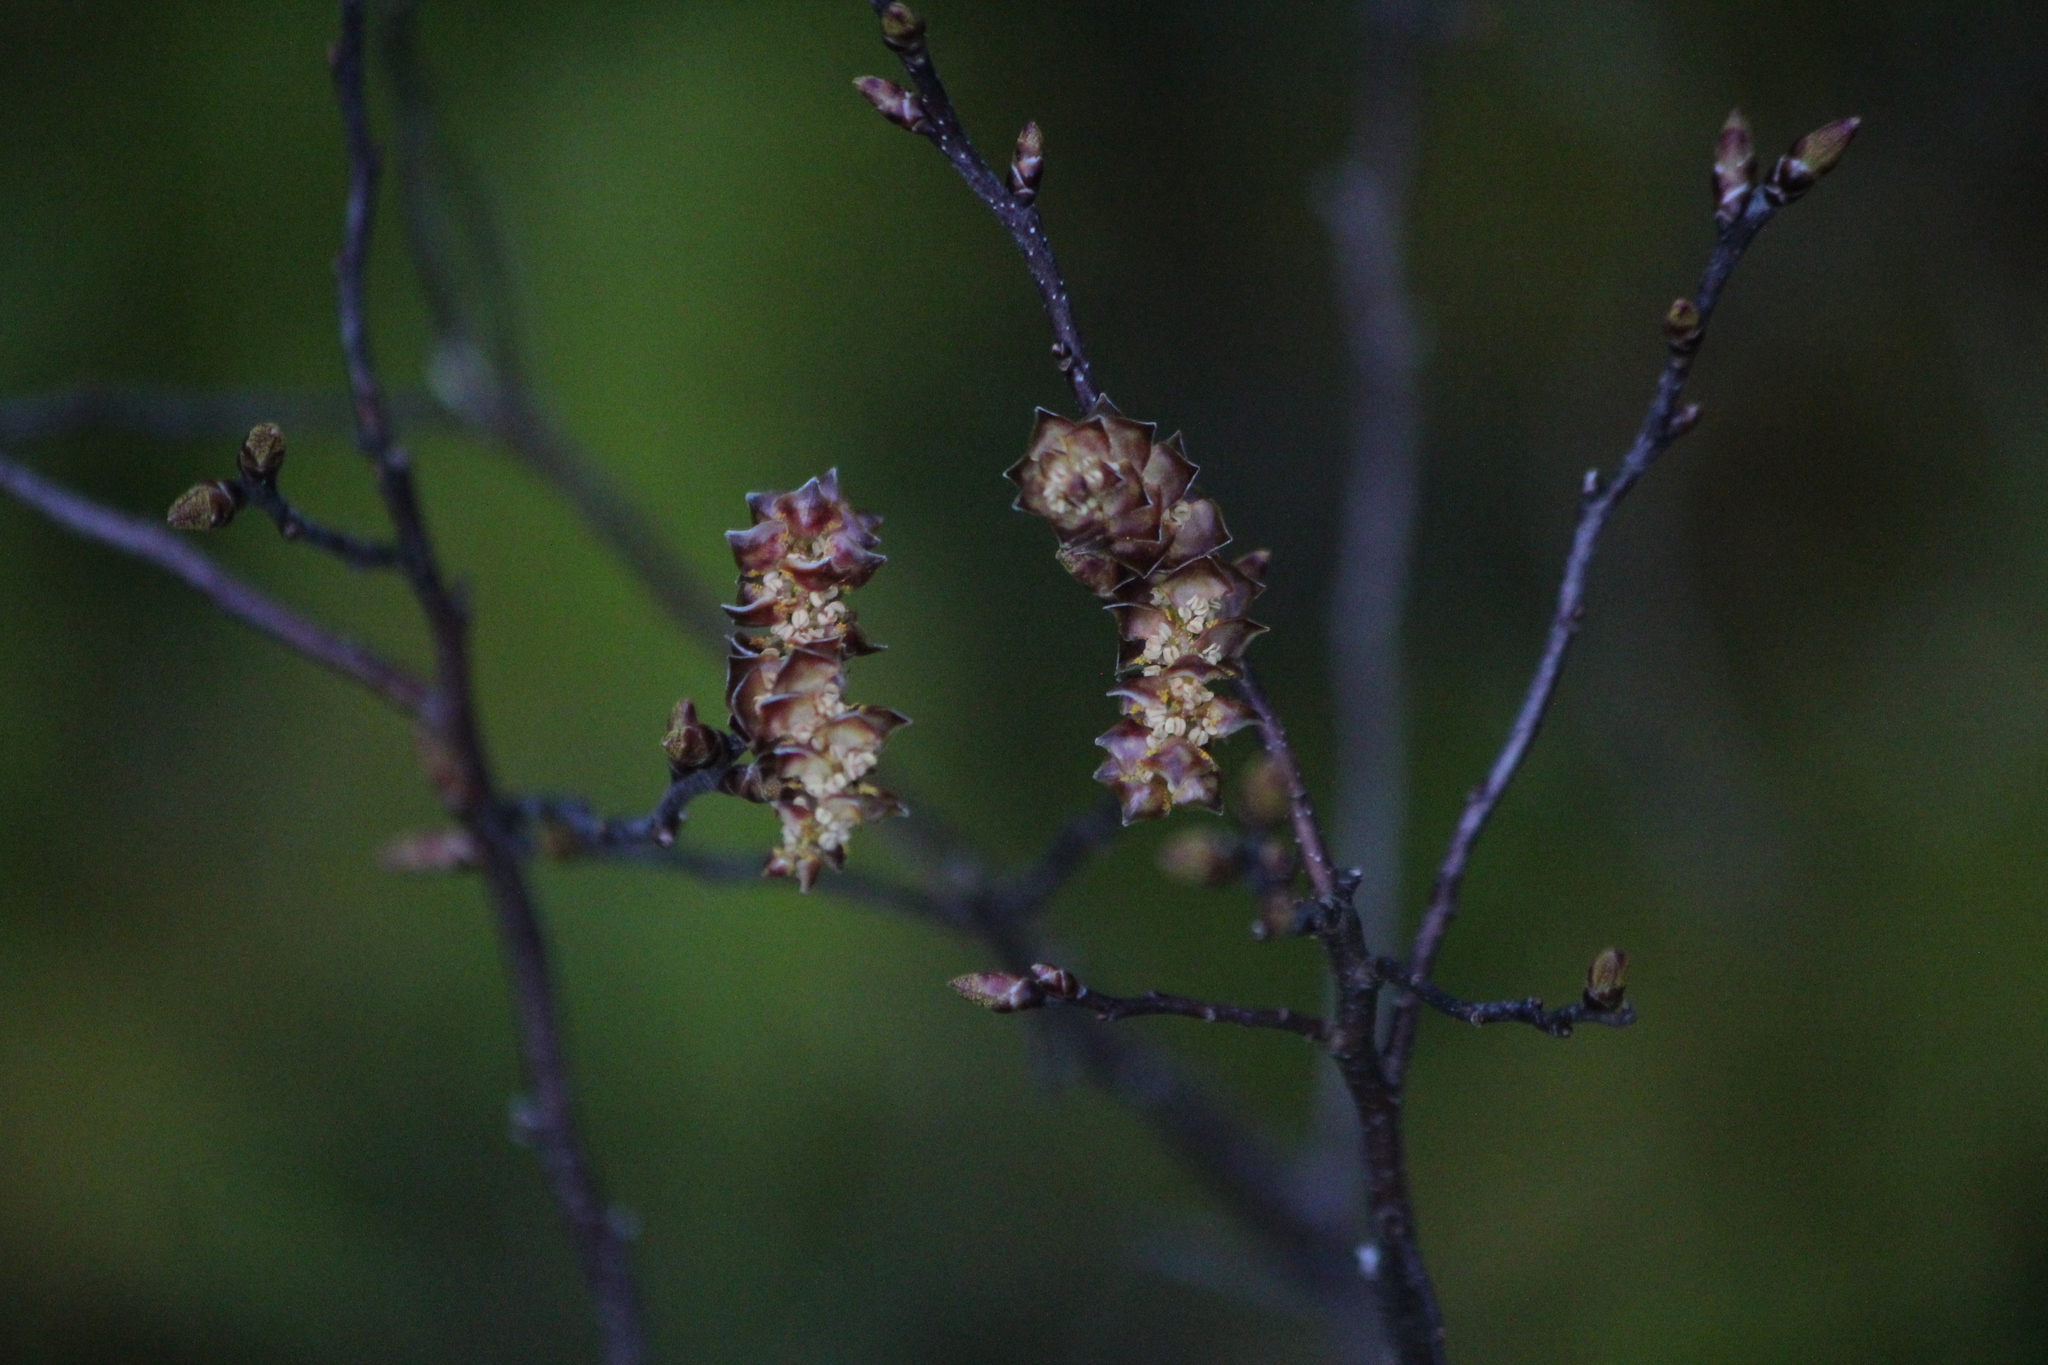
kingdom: Plantae
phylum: Tracheophyta
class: Magnoliopsida
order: Fagales
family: Myricaceae
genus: Myrica
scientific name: Myrica gale
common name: Sweet gale
